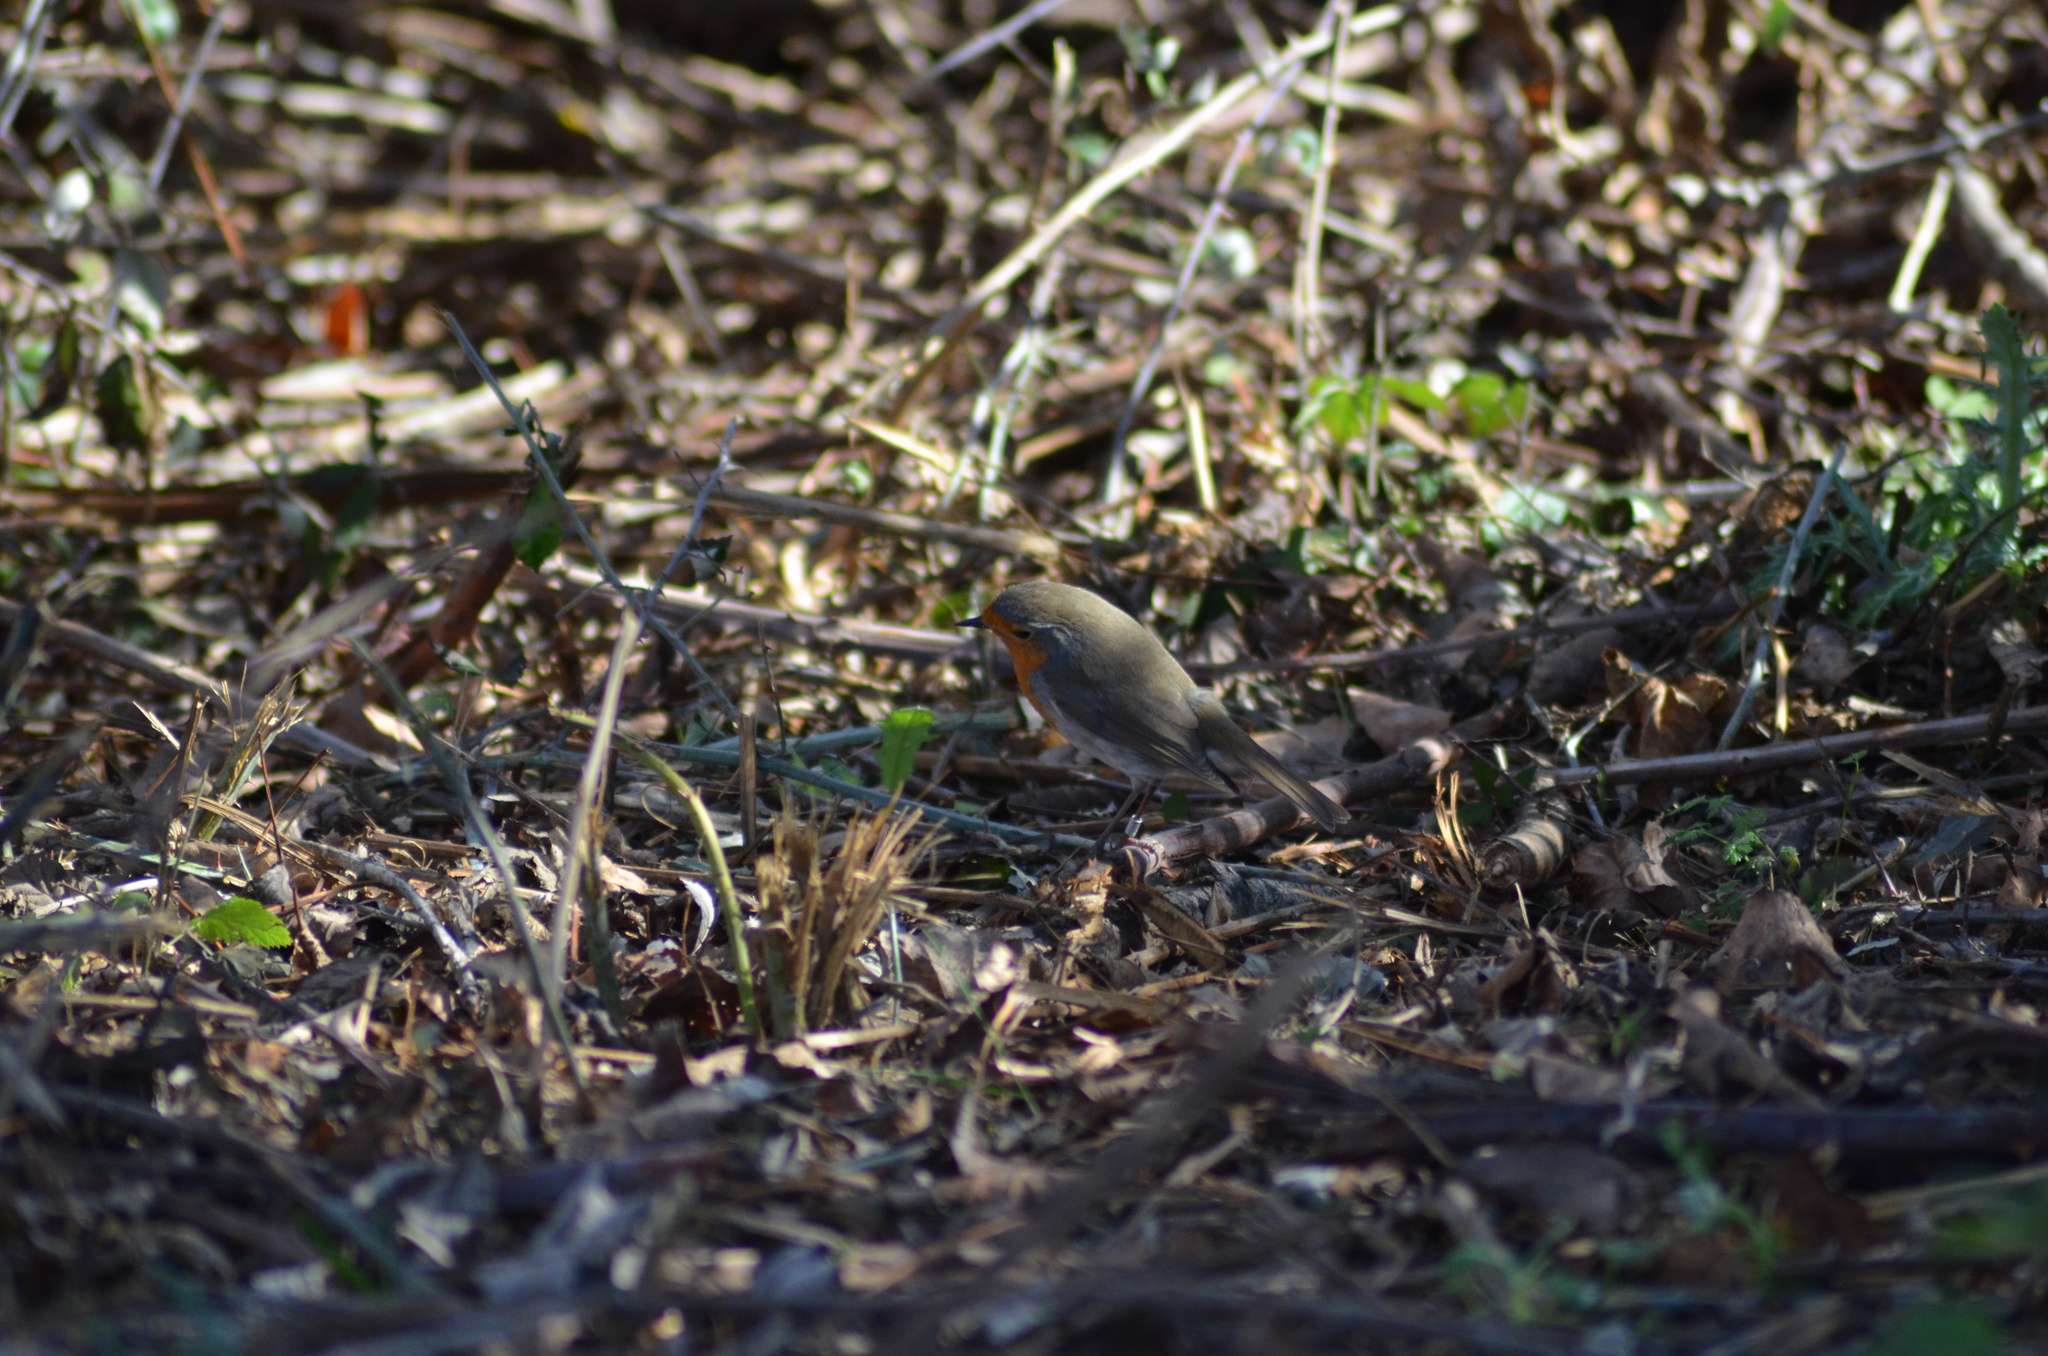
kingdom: Animalia
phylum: Chordata
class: Aves
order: Passeriformes
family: Muscicapidae
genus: Erithacus
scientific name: Erithacus rubecula
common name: European robin
